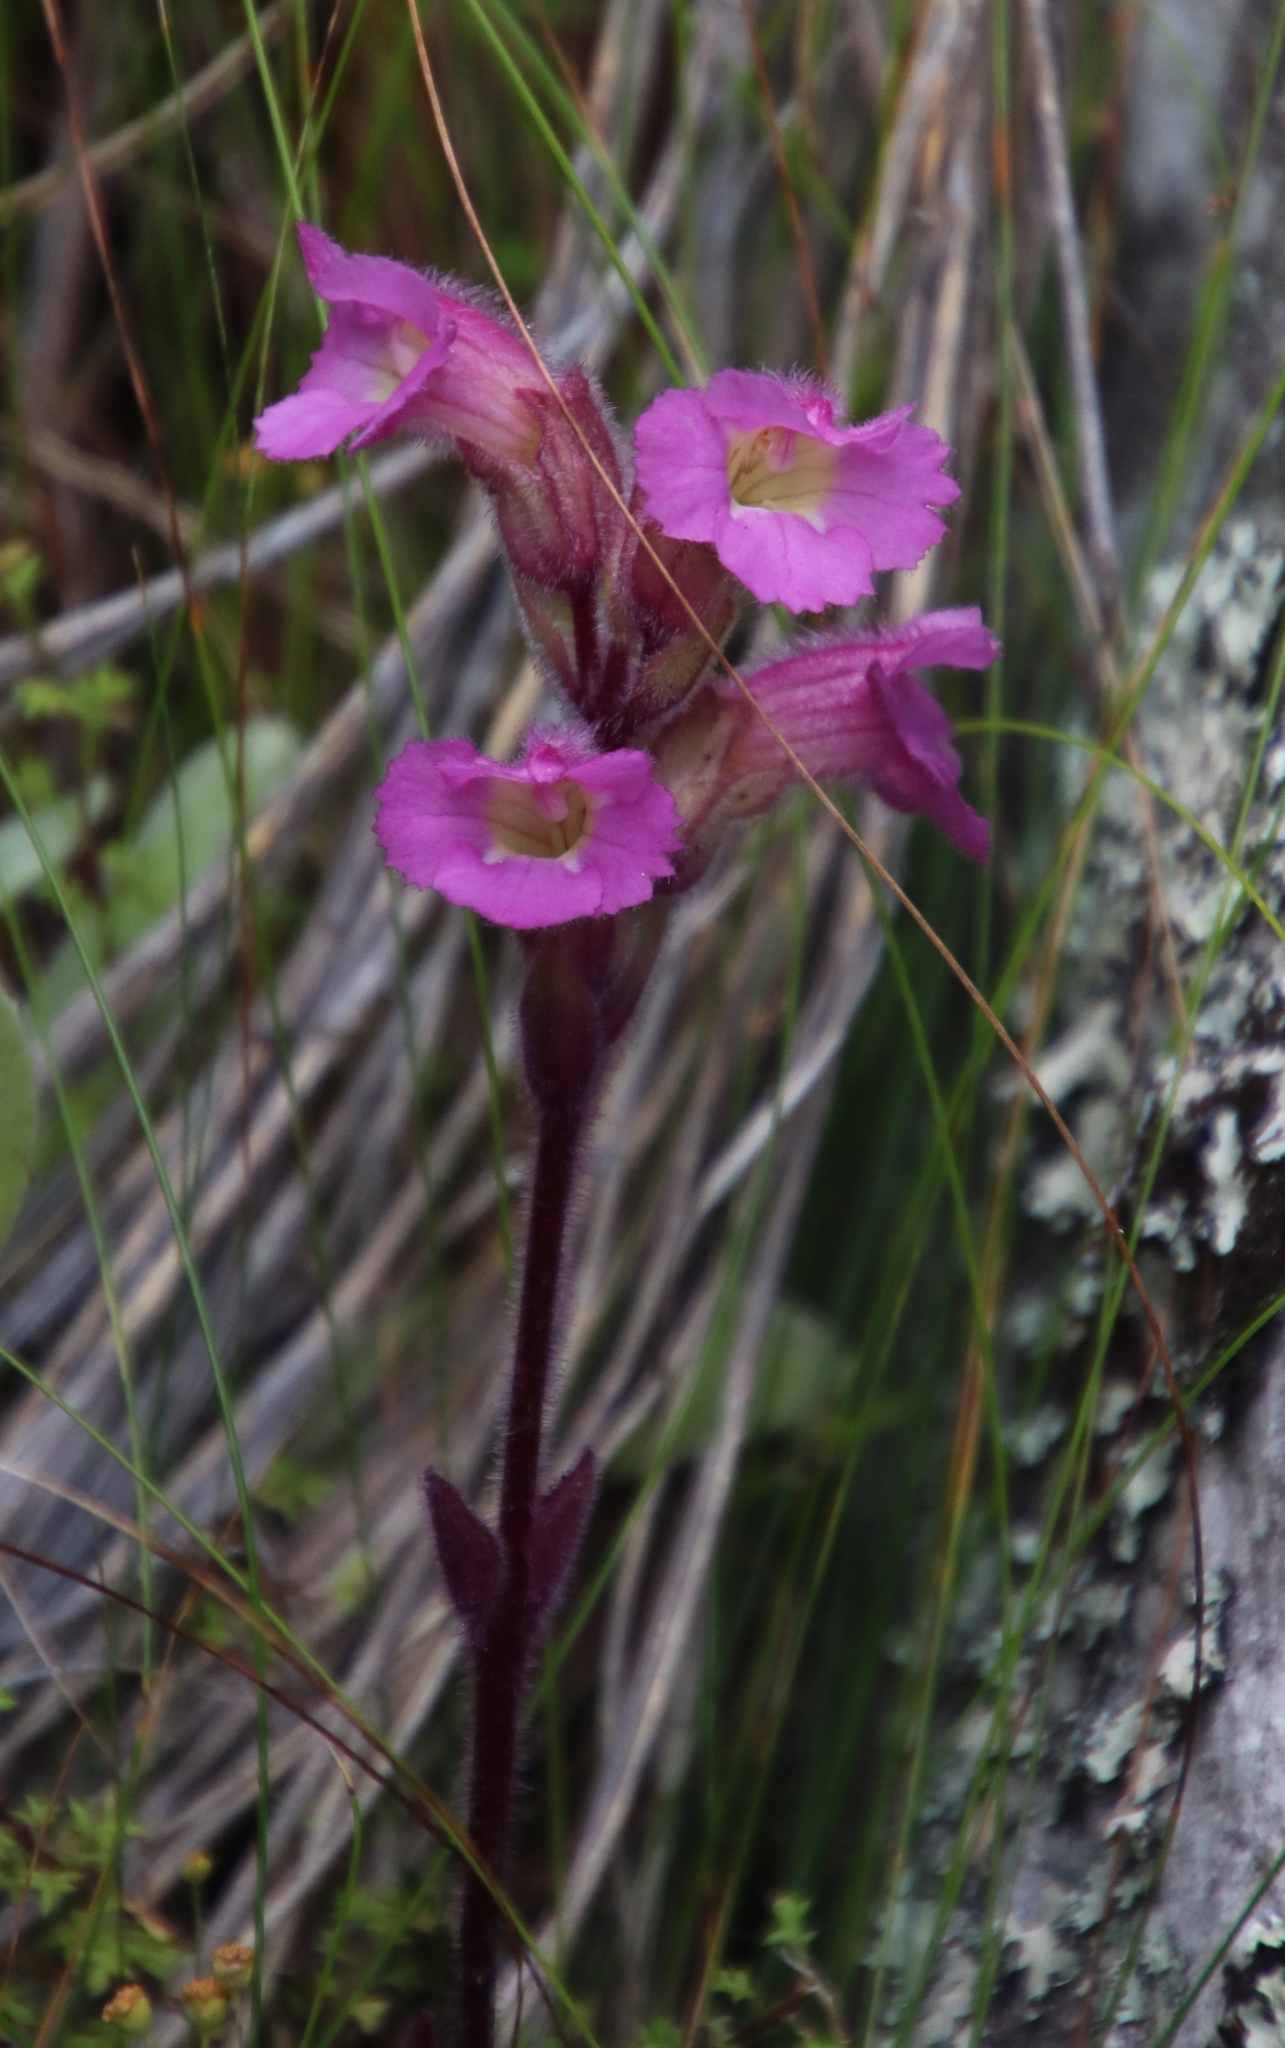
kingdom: Plantae
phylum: Tracheophyta
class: Magnoliopsida
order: Lamiales
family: Orobanchaceae
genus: Harveya
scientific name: Harveya purpurea
